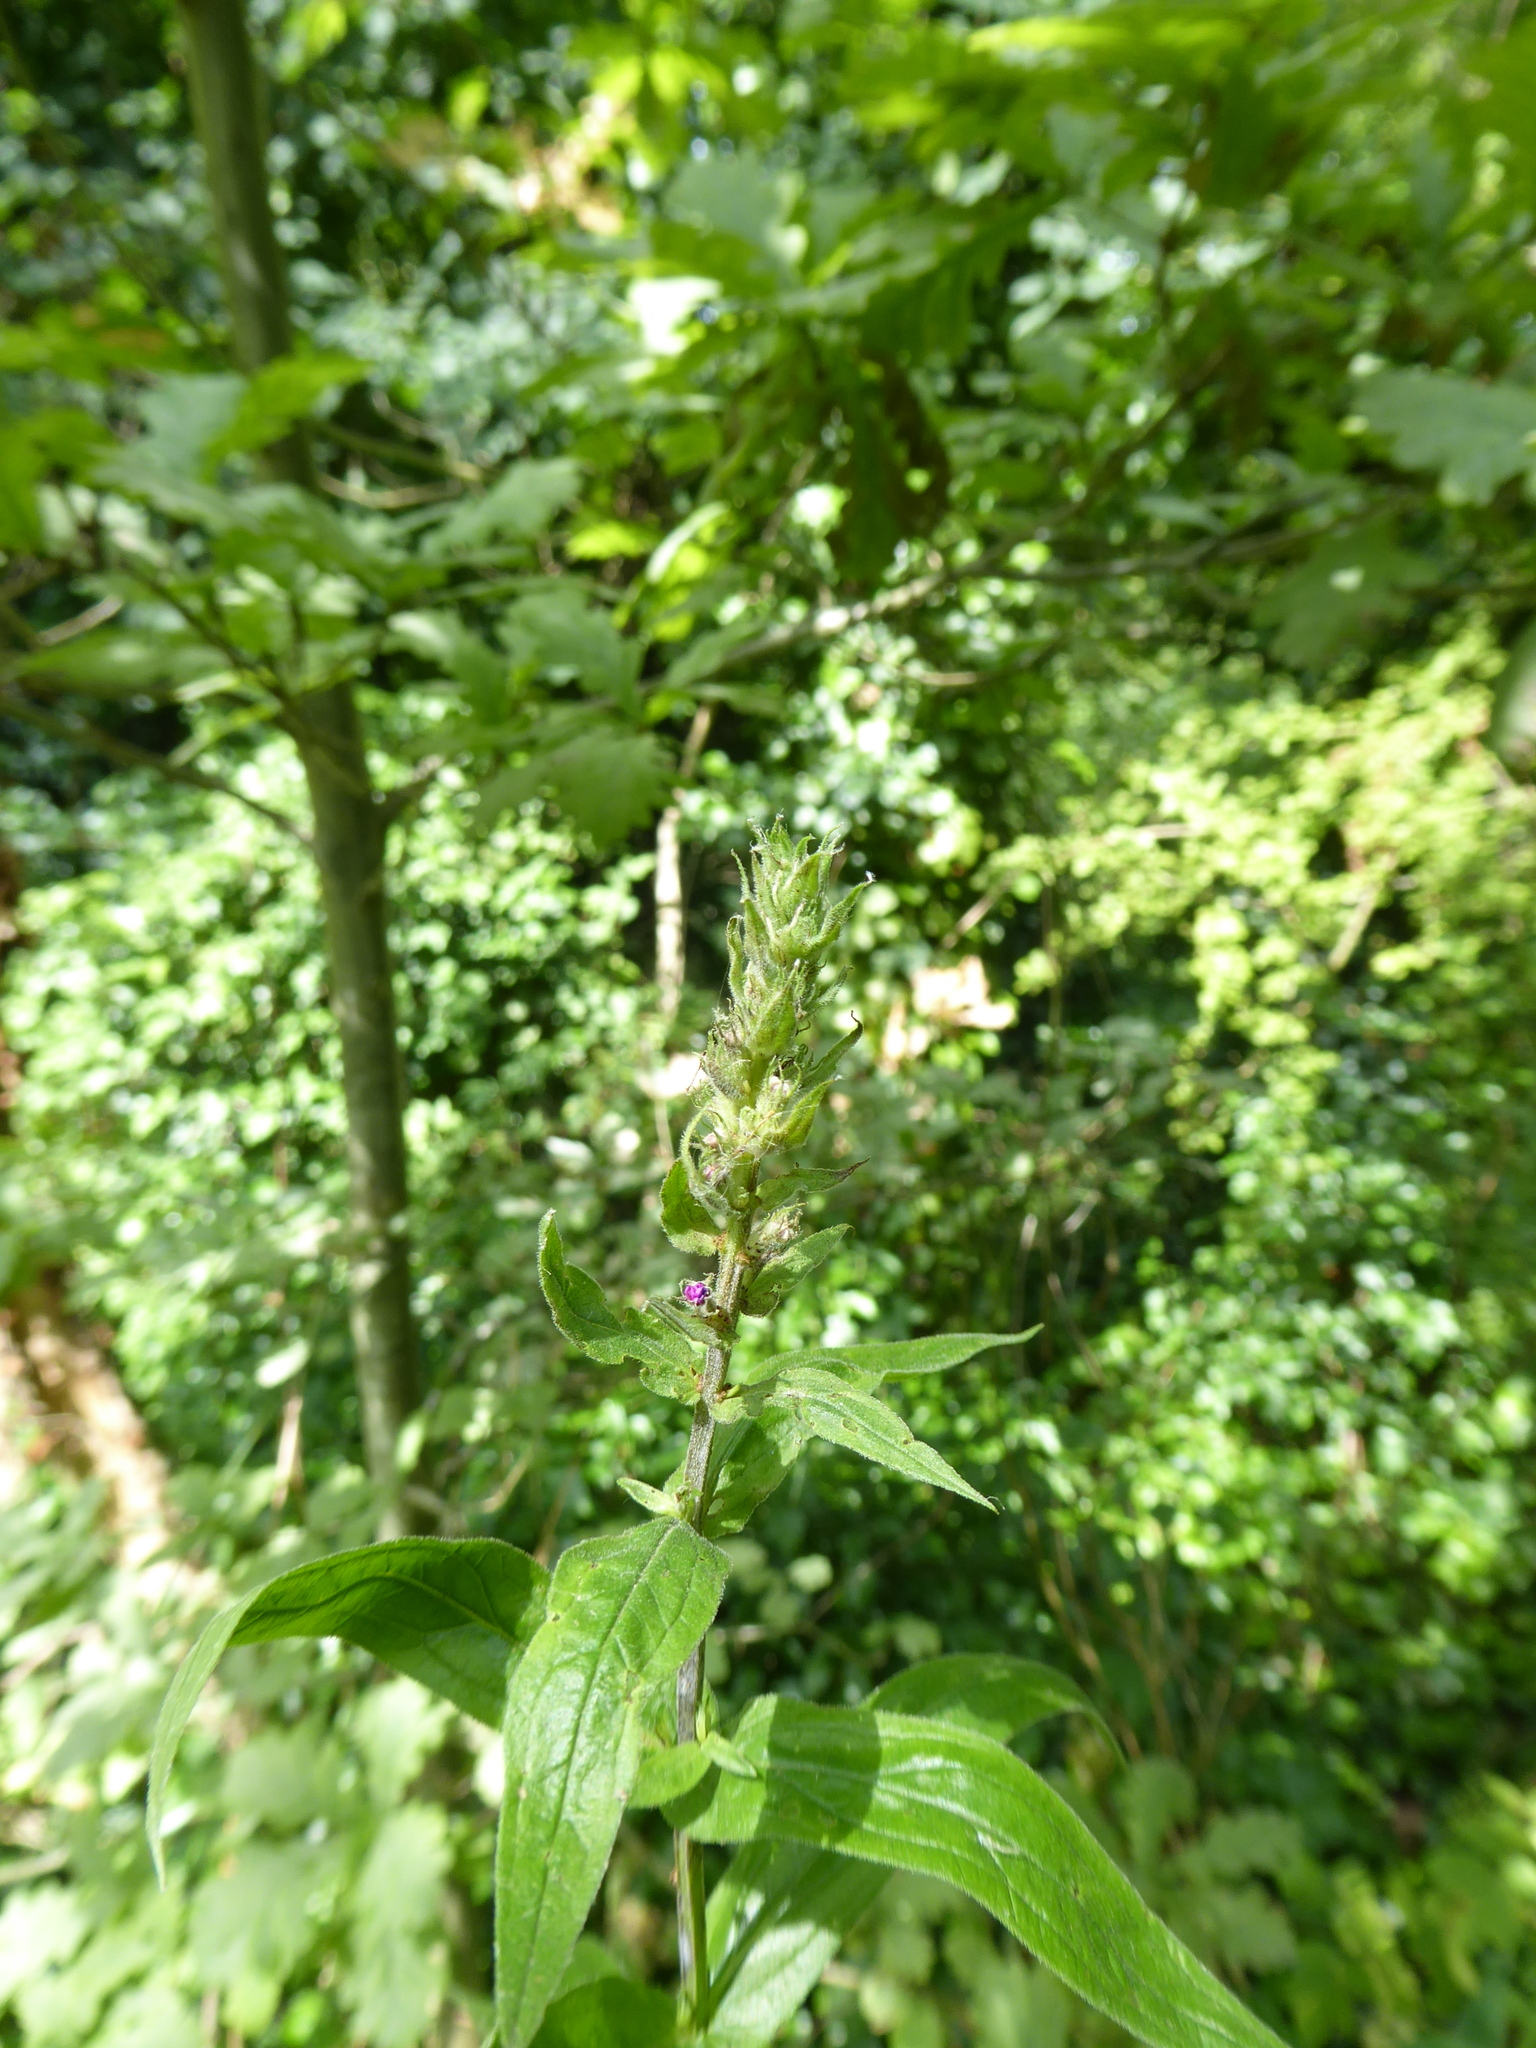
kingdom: Plantae
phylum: Tracheophyta
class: Magnoliopsida
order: Myrtales
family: Lythraceae
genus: Lythrum
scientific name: Lythrum salicaria
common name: Purple loosestrife
